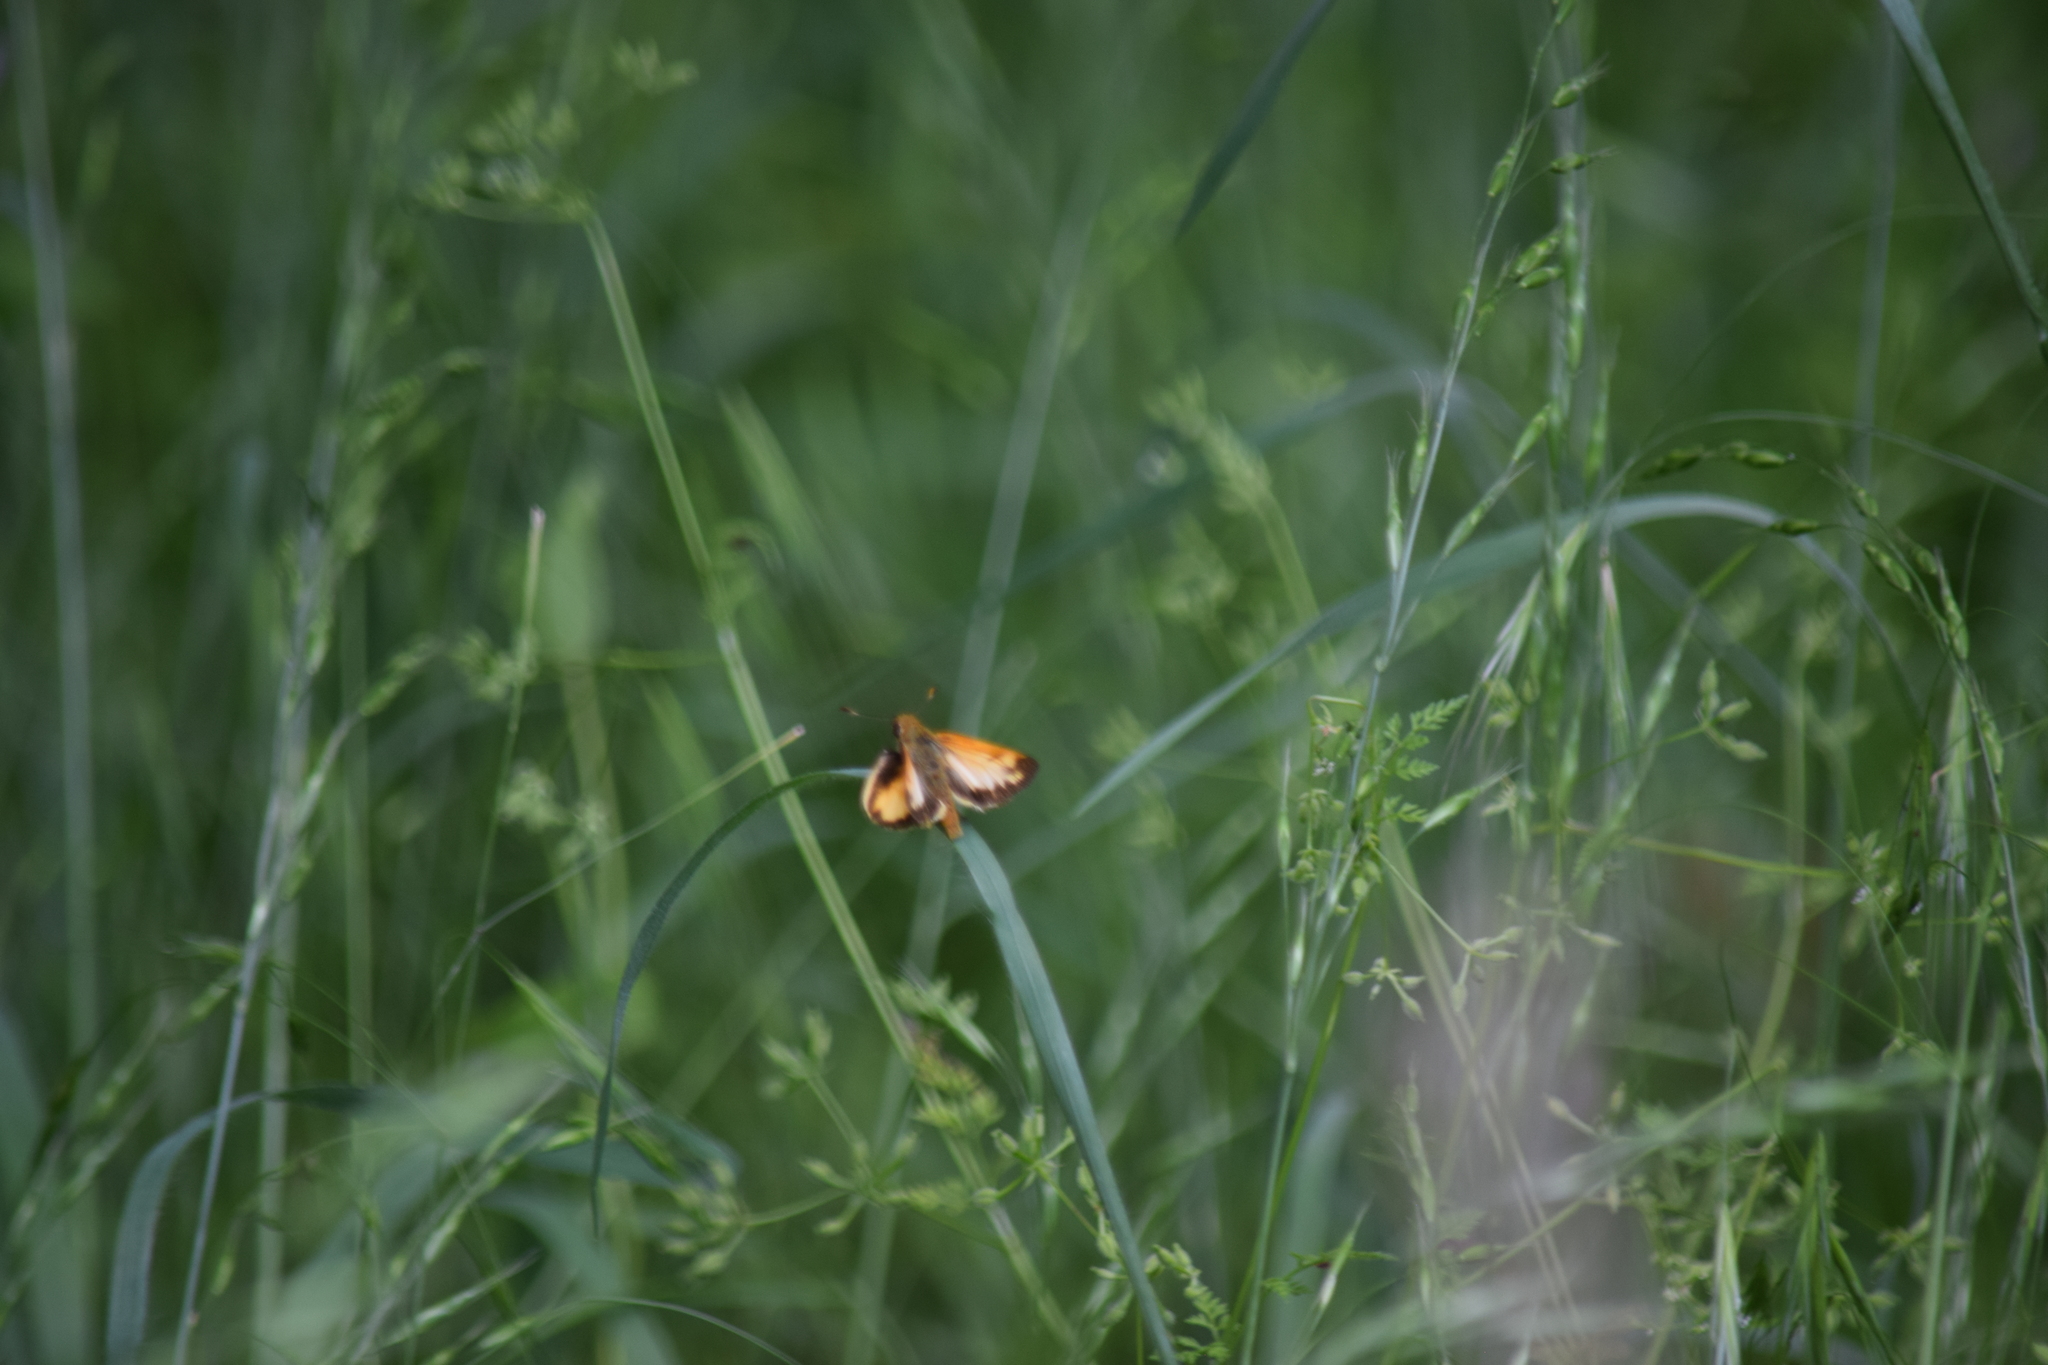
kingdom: Animalia
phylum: Arthropoda
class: Insecta
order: Lepidoptera
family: Hesperiidae
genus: Lon
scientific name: Lon zabulon
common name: Zabulon skipper
